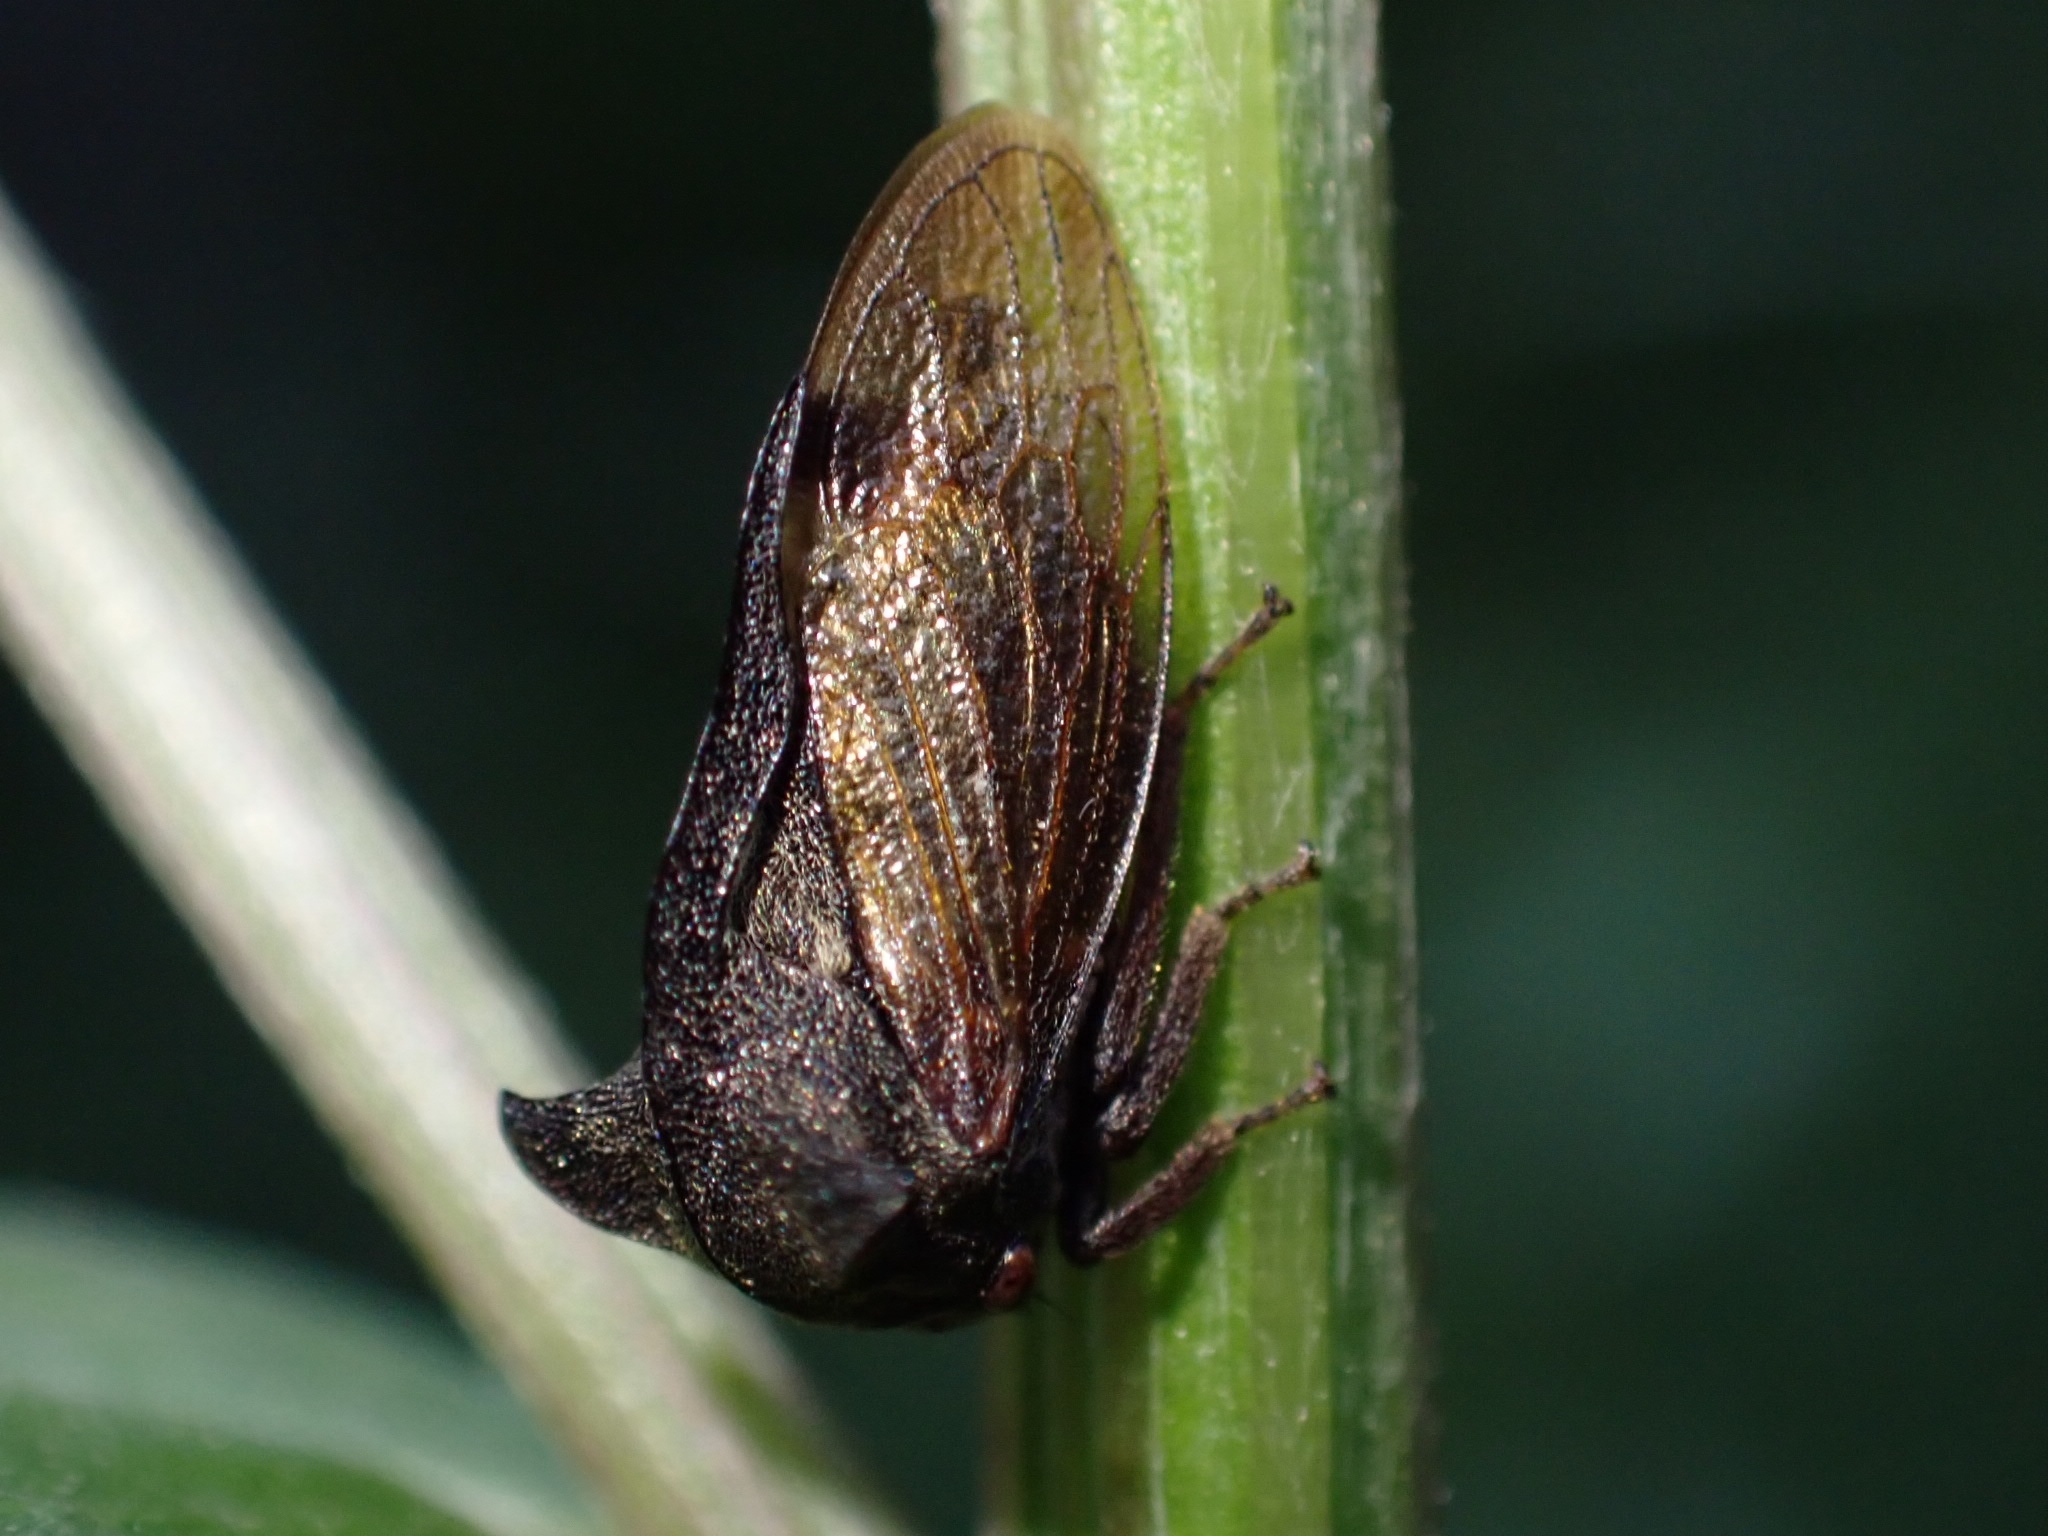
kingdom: Animalia
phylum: Arthropoda
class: Insecta
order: Hemiptera
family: Membracidae
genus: Centrotus
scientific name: Centrotus cornuta
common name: Treehopper
